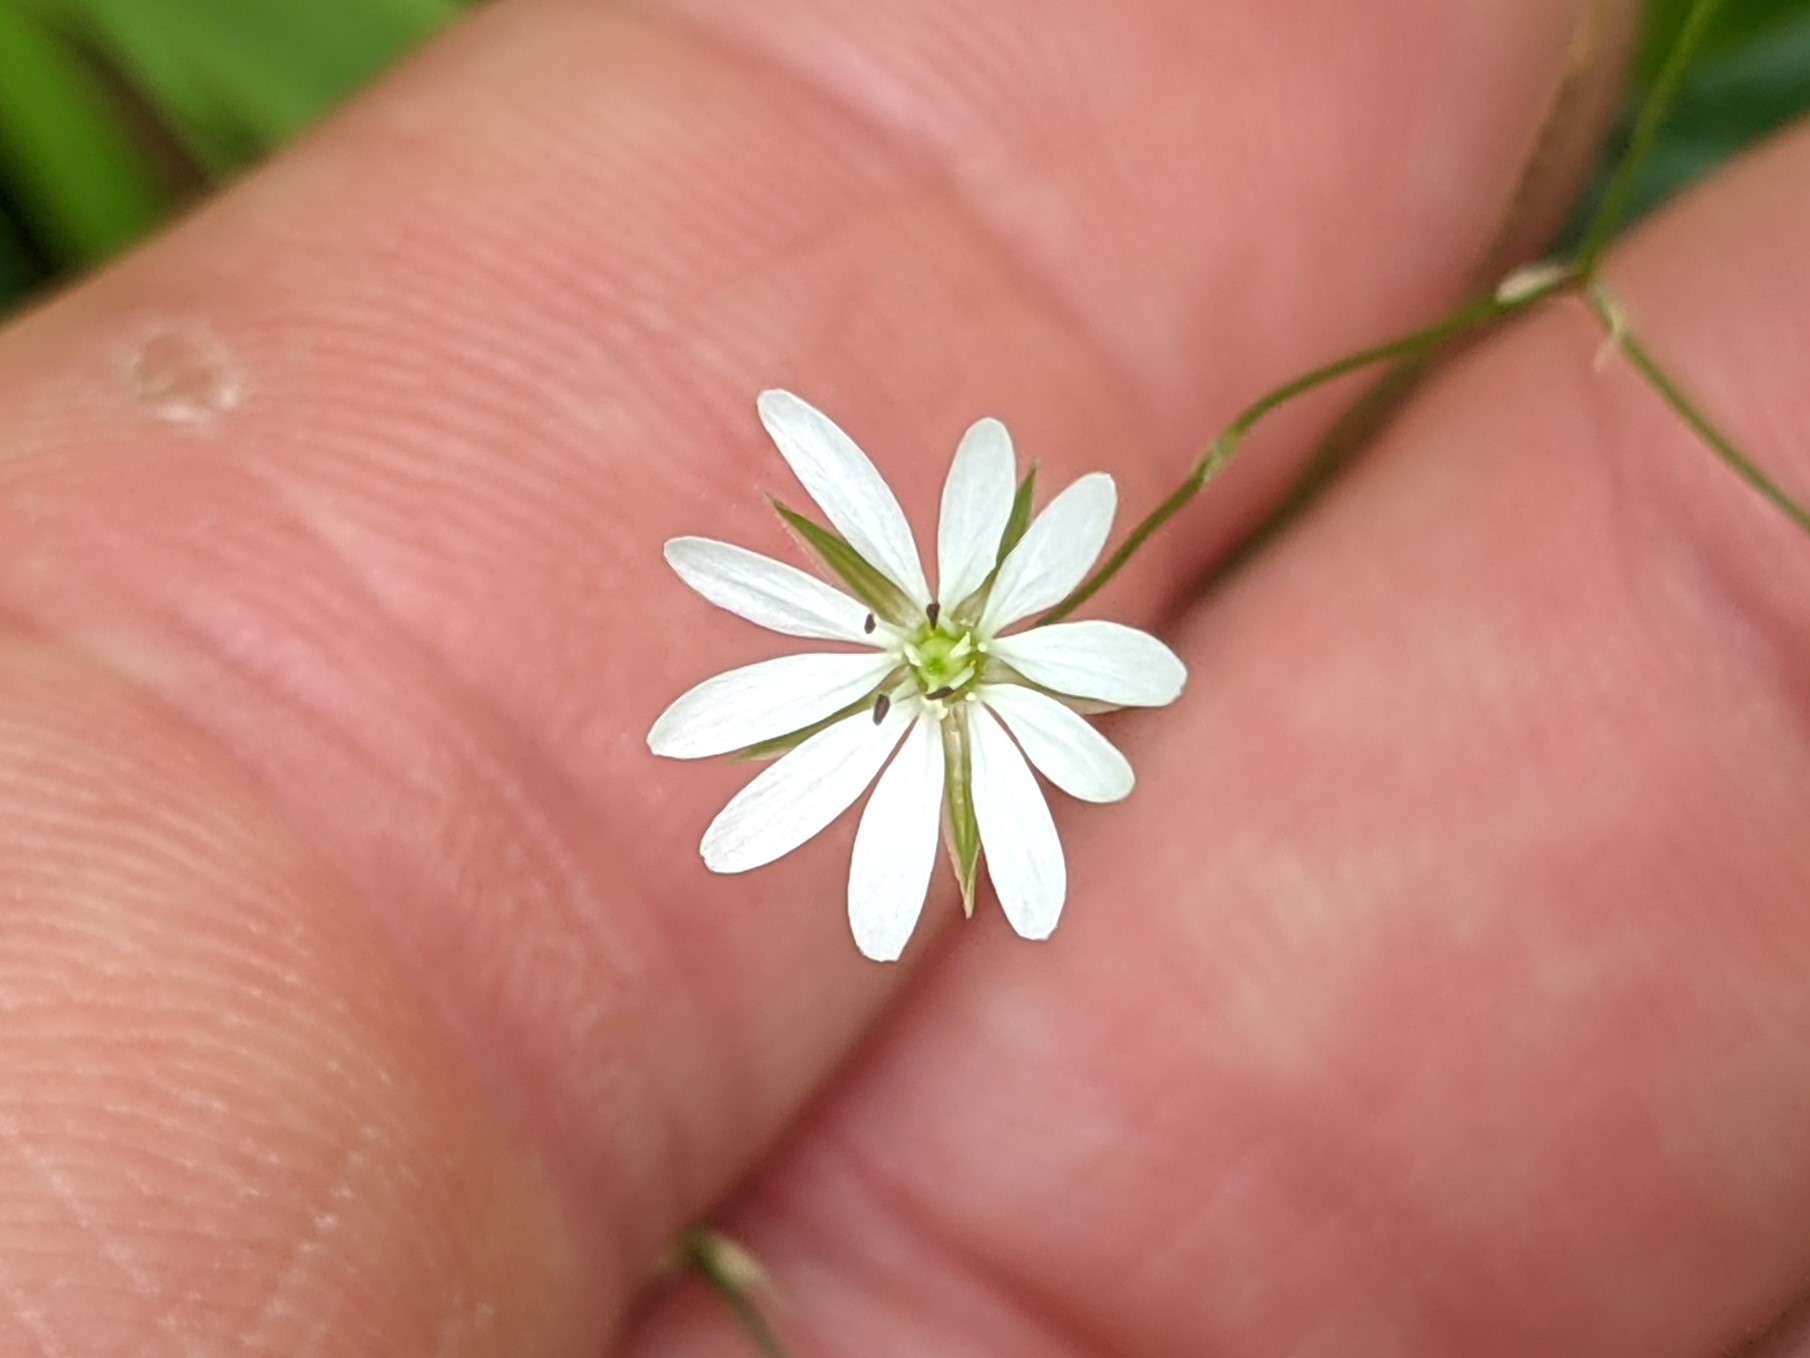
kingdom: Plantae
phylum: Tracheophyta
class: Magnoliopsida
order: Caryophyllales
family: Caryophyllaceae
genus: Stellaria
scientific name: Stellaria graminea
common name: Grass-like starwort
